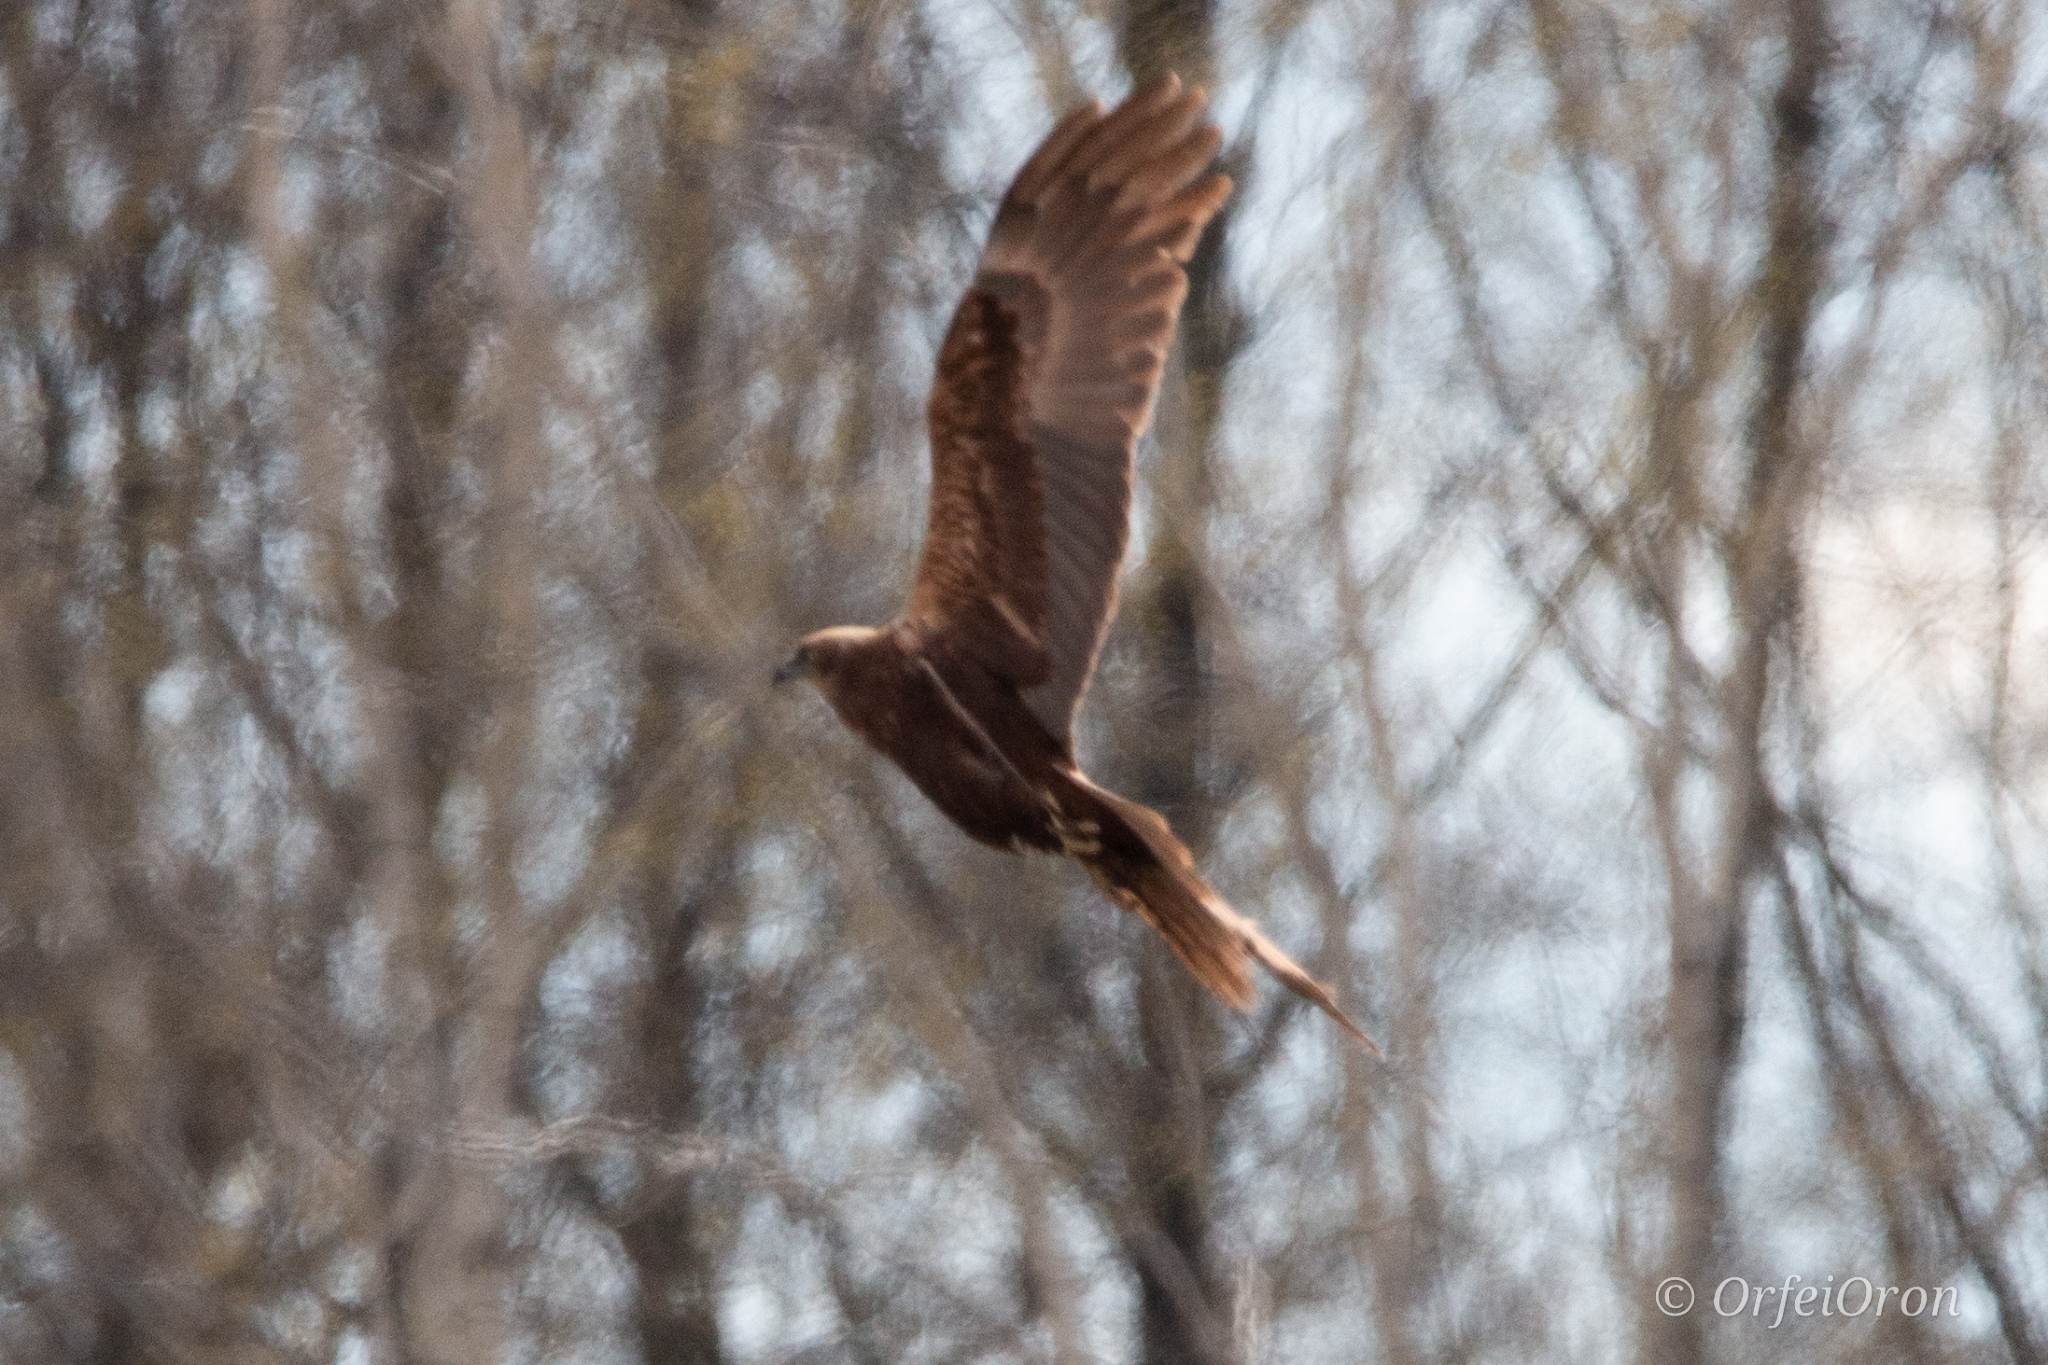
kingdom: Animalia
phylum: Chordata
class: Aves
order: Accipitriformes
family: Accipitridae
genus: Circus
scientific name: Circus aeruginosus
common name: Western marsh harrier
